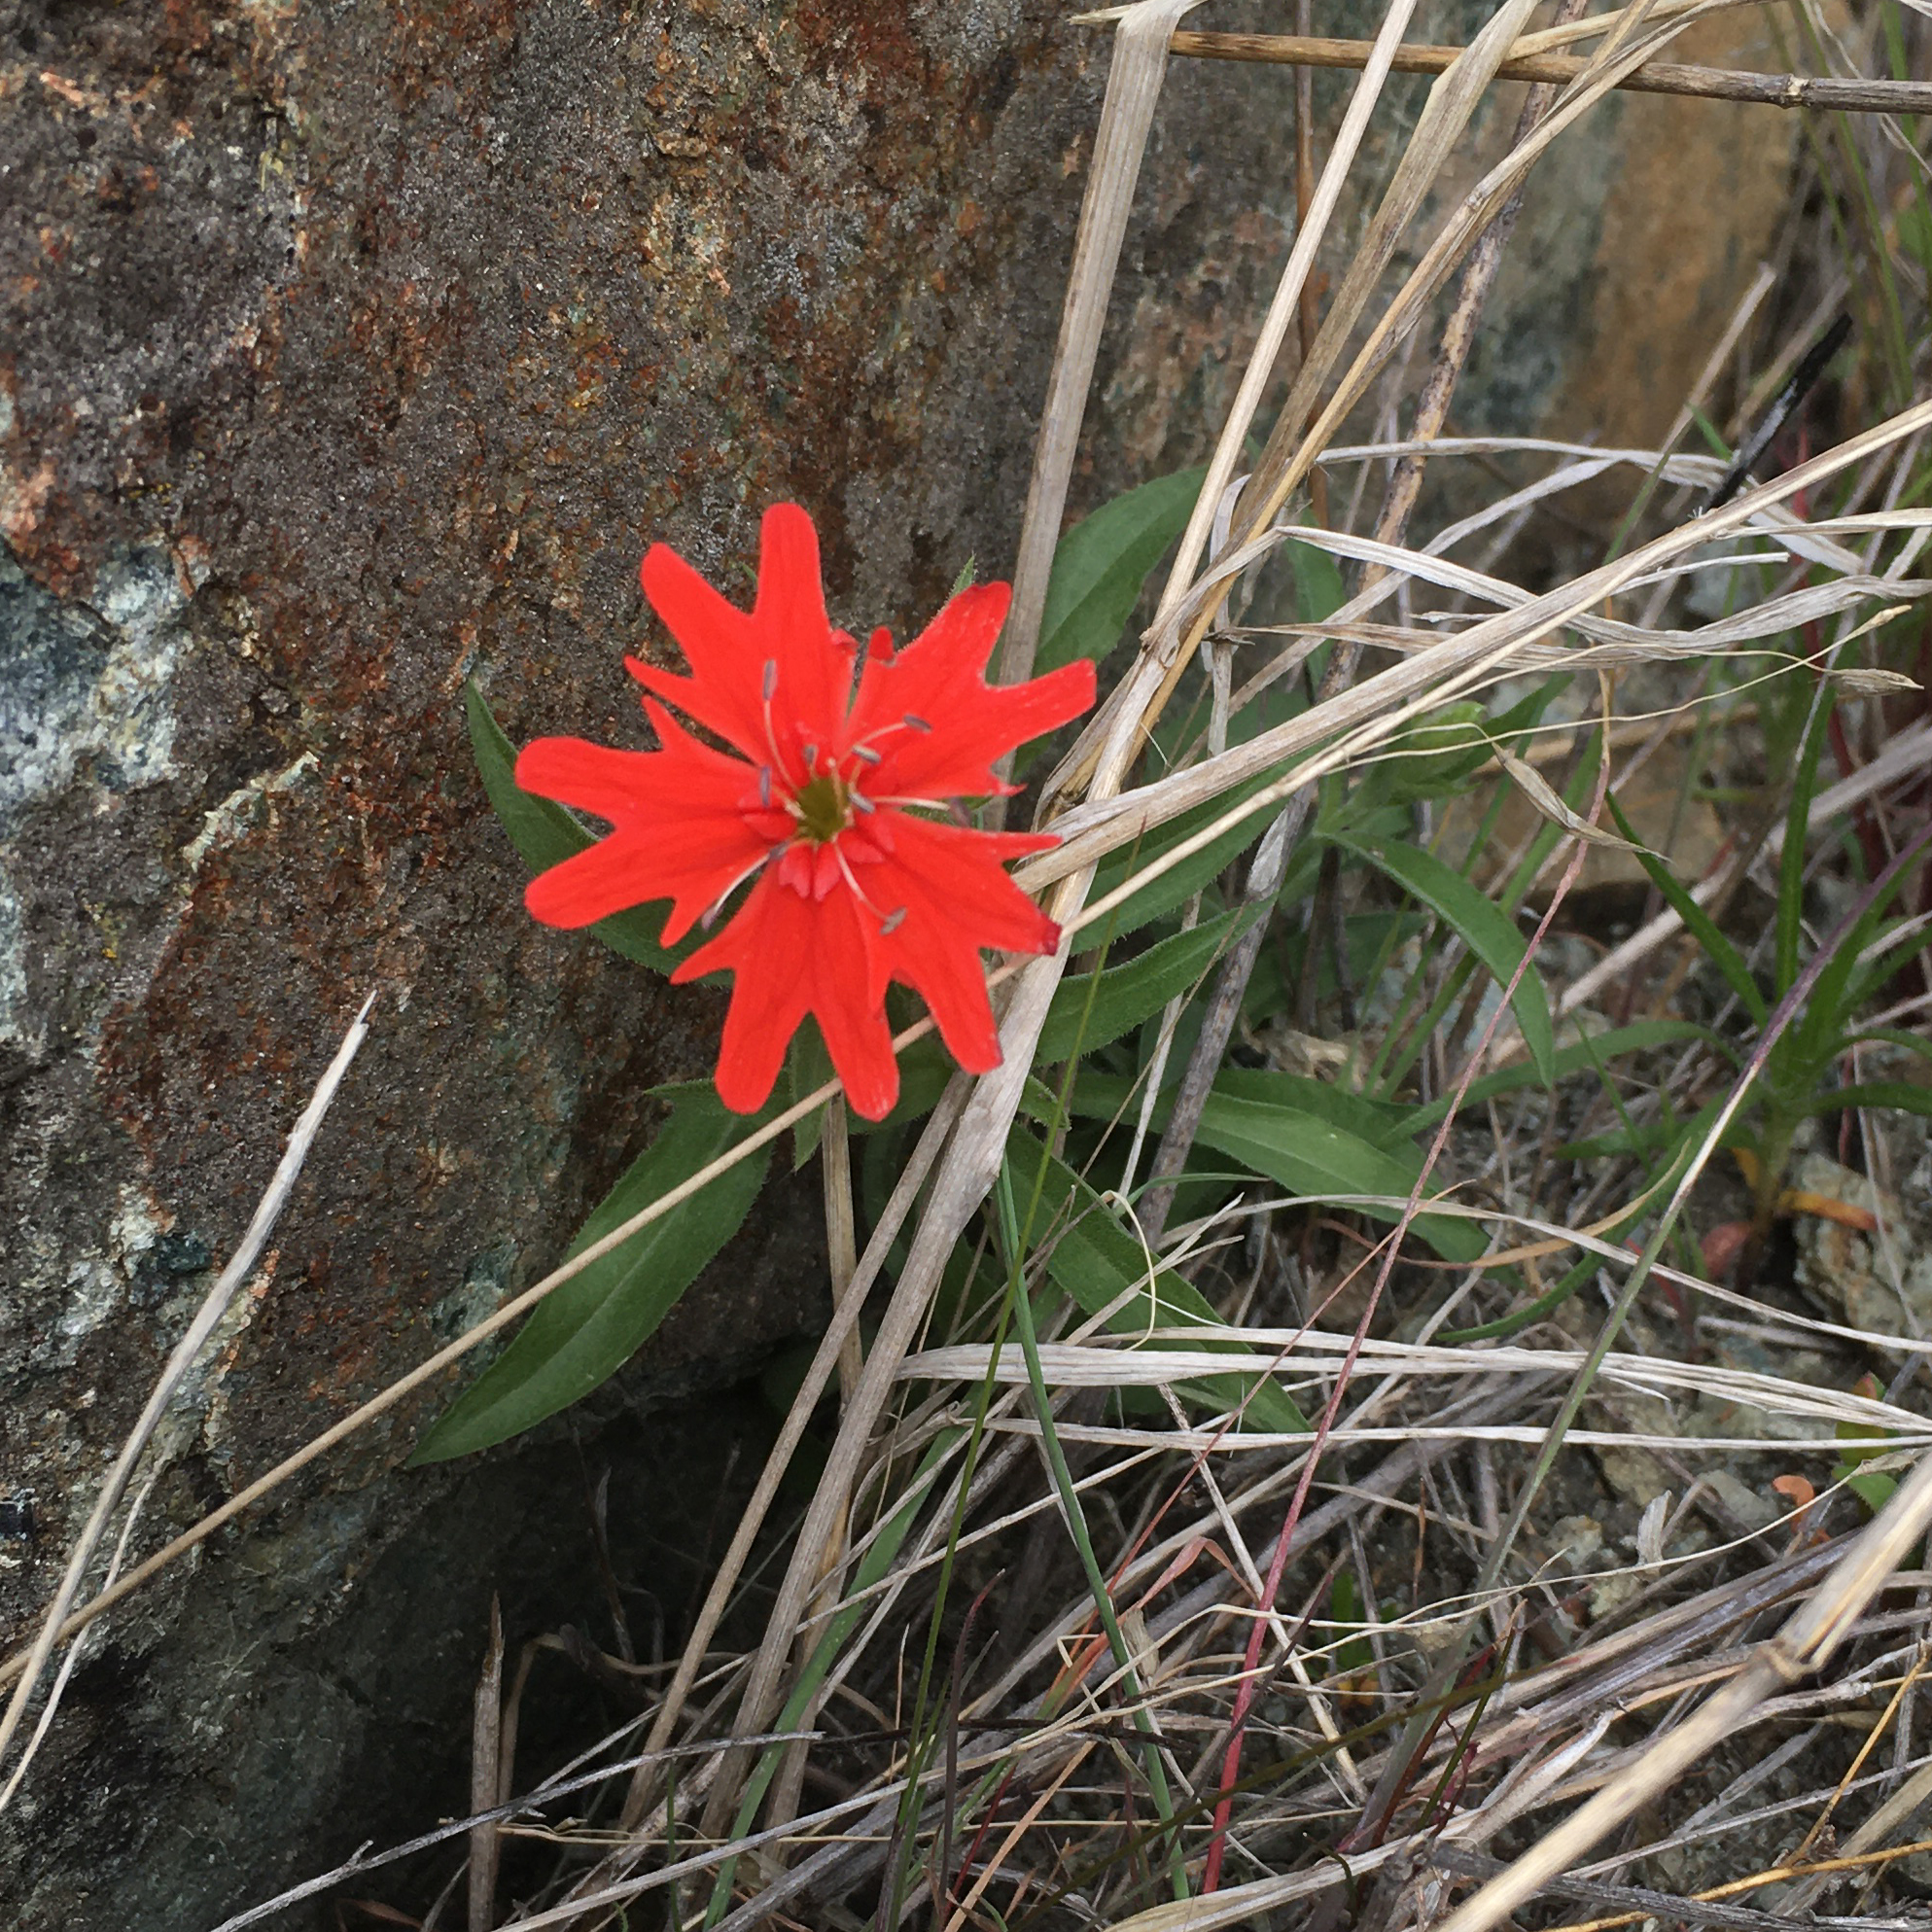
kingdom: Plantae
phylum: Tracheophyta
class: Magnoliopsida
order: Caryophyllales
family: Caryophyllaceae
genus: Silene
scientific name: Silene laciniata
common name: Indian-pink
